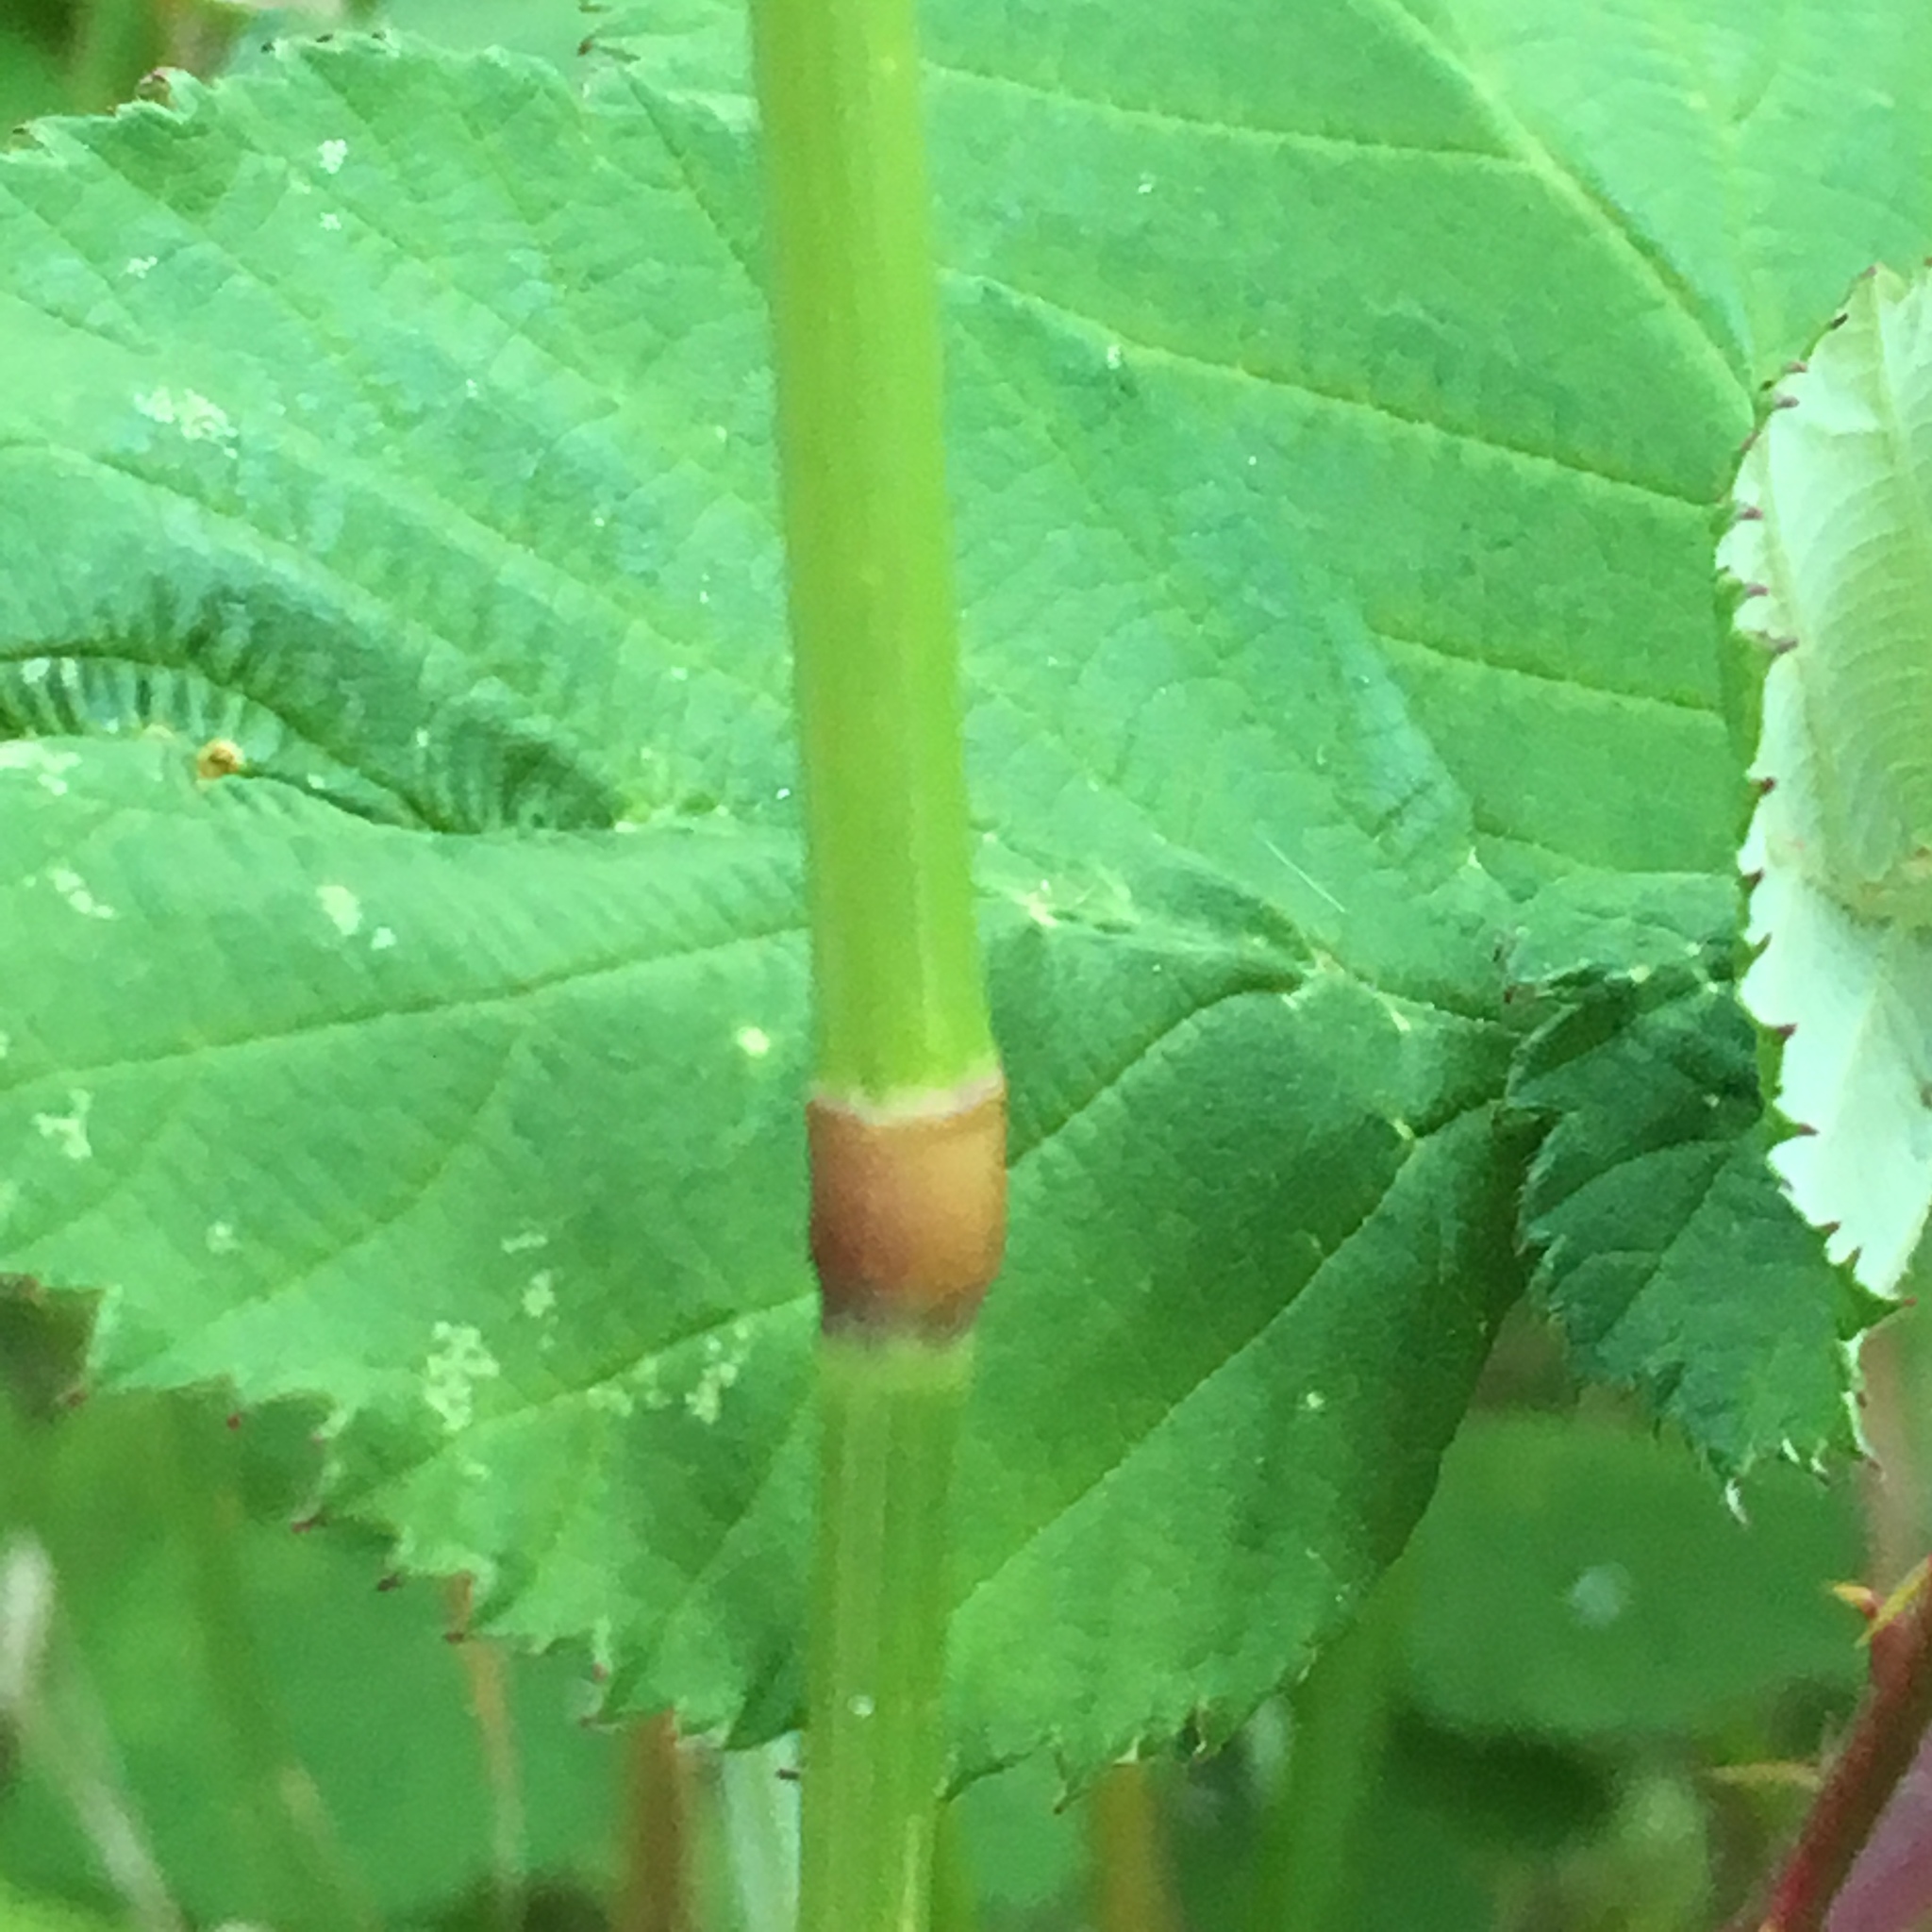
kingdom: Plantae
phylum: Tracheophyta
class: Liliopsida
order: Poales
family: Poaceae
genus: Arrhenatherum
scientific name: Arrhenatherum elatius
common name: Tall oatgrass
